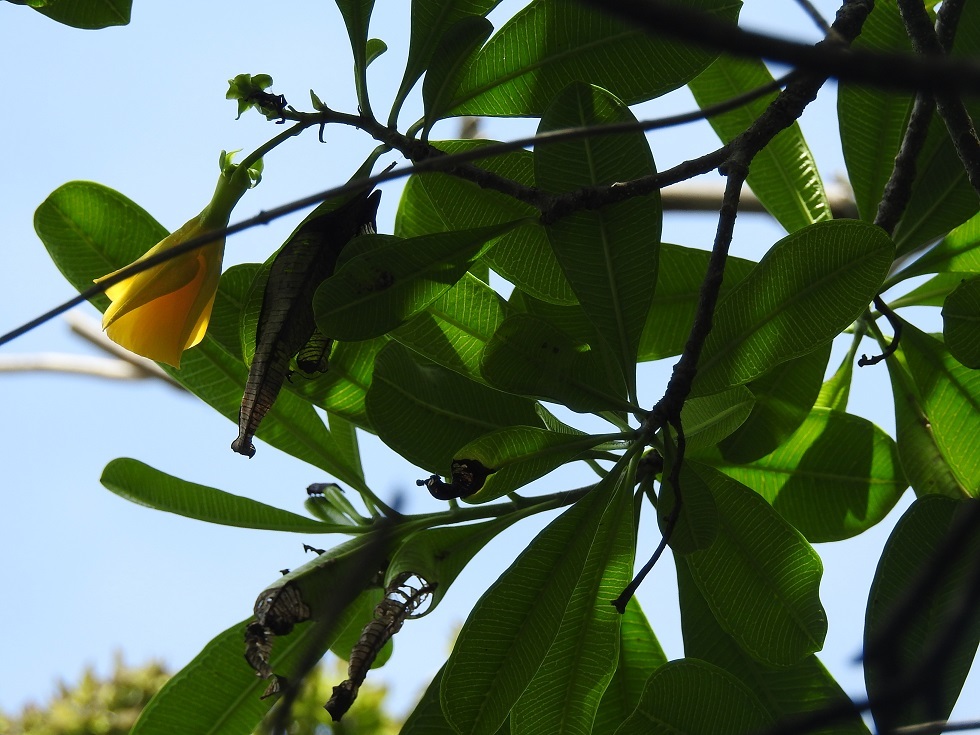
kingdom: Plantae
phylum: Tracheophyta
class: Magnoliopsida
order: Gentianales
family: Apocynaceae
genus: Cascabela
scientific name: Cascabela ovata
